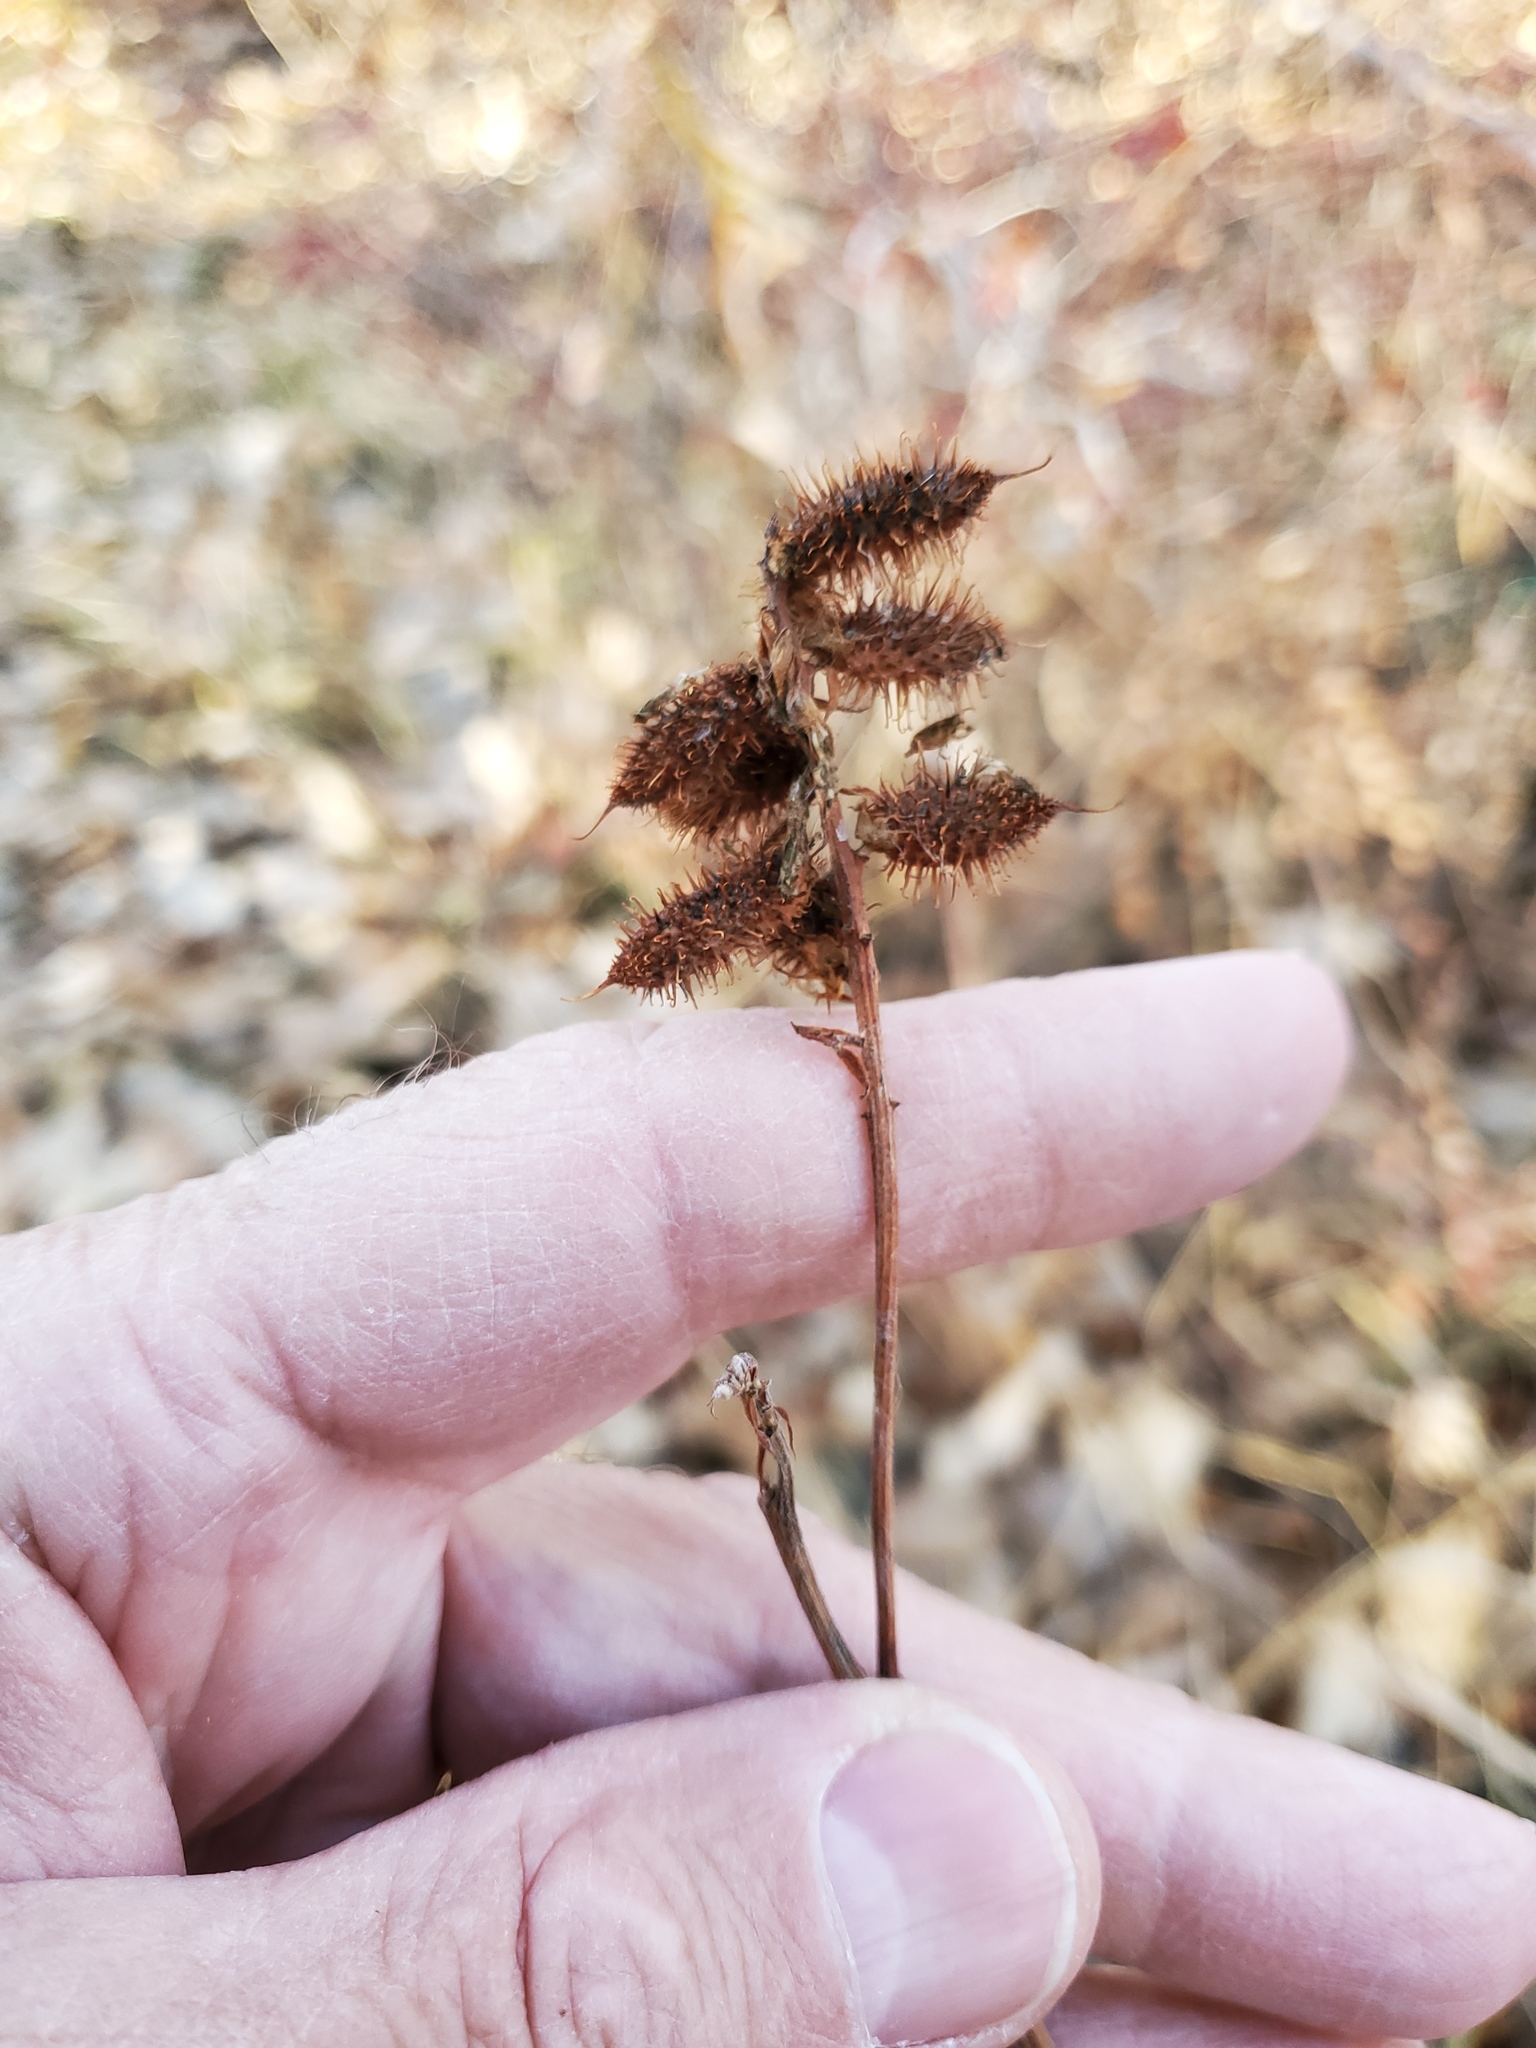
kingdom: Plantae
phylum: Tracheophyta
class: Magnoliopsida
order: Fabales
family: Fabaceae
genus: Glycyrrhiza
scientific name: Glycyrrhiza lepidota
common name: American liquorice
